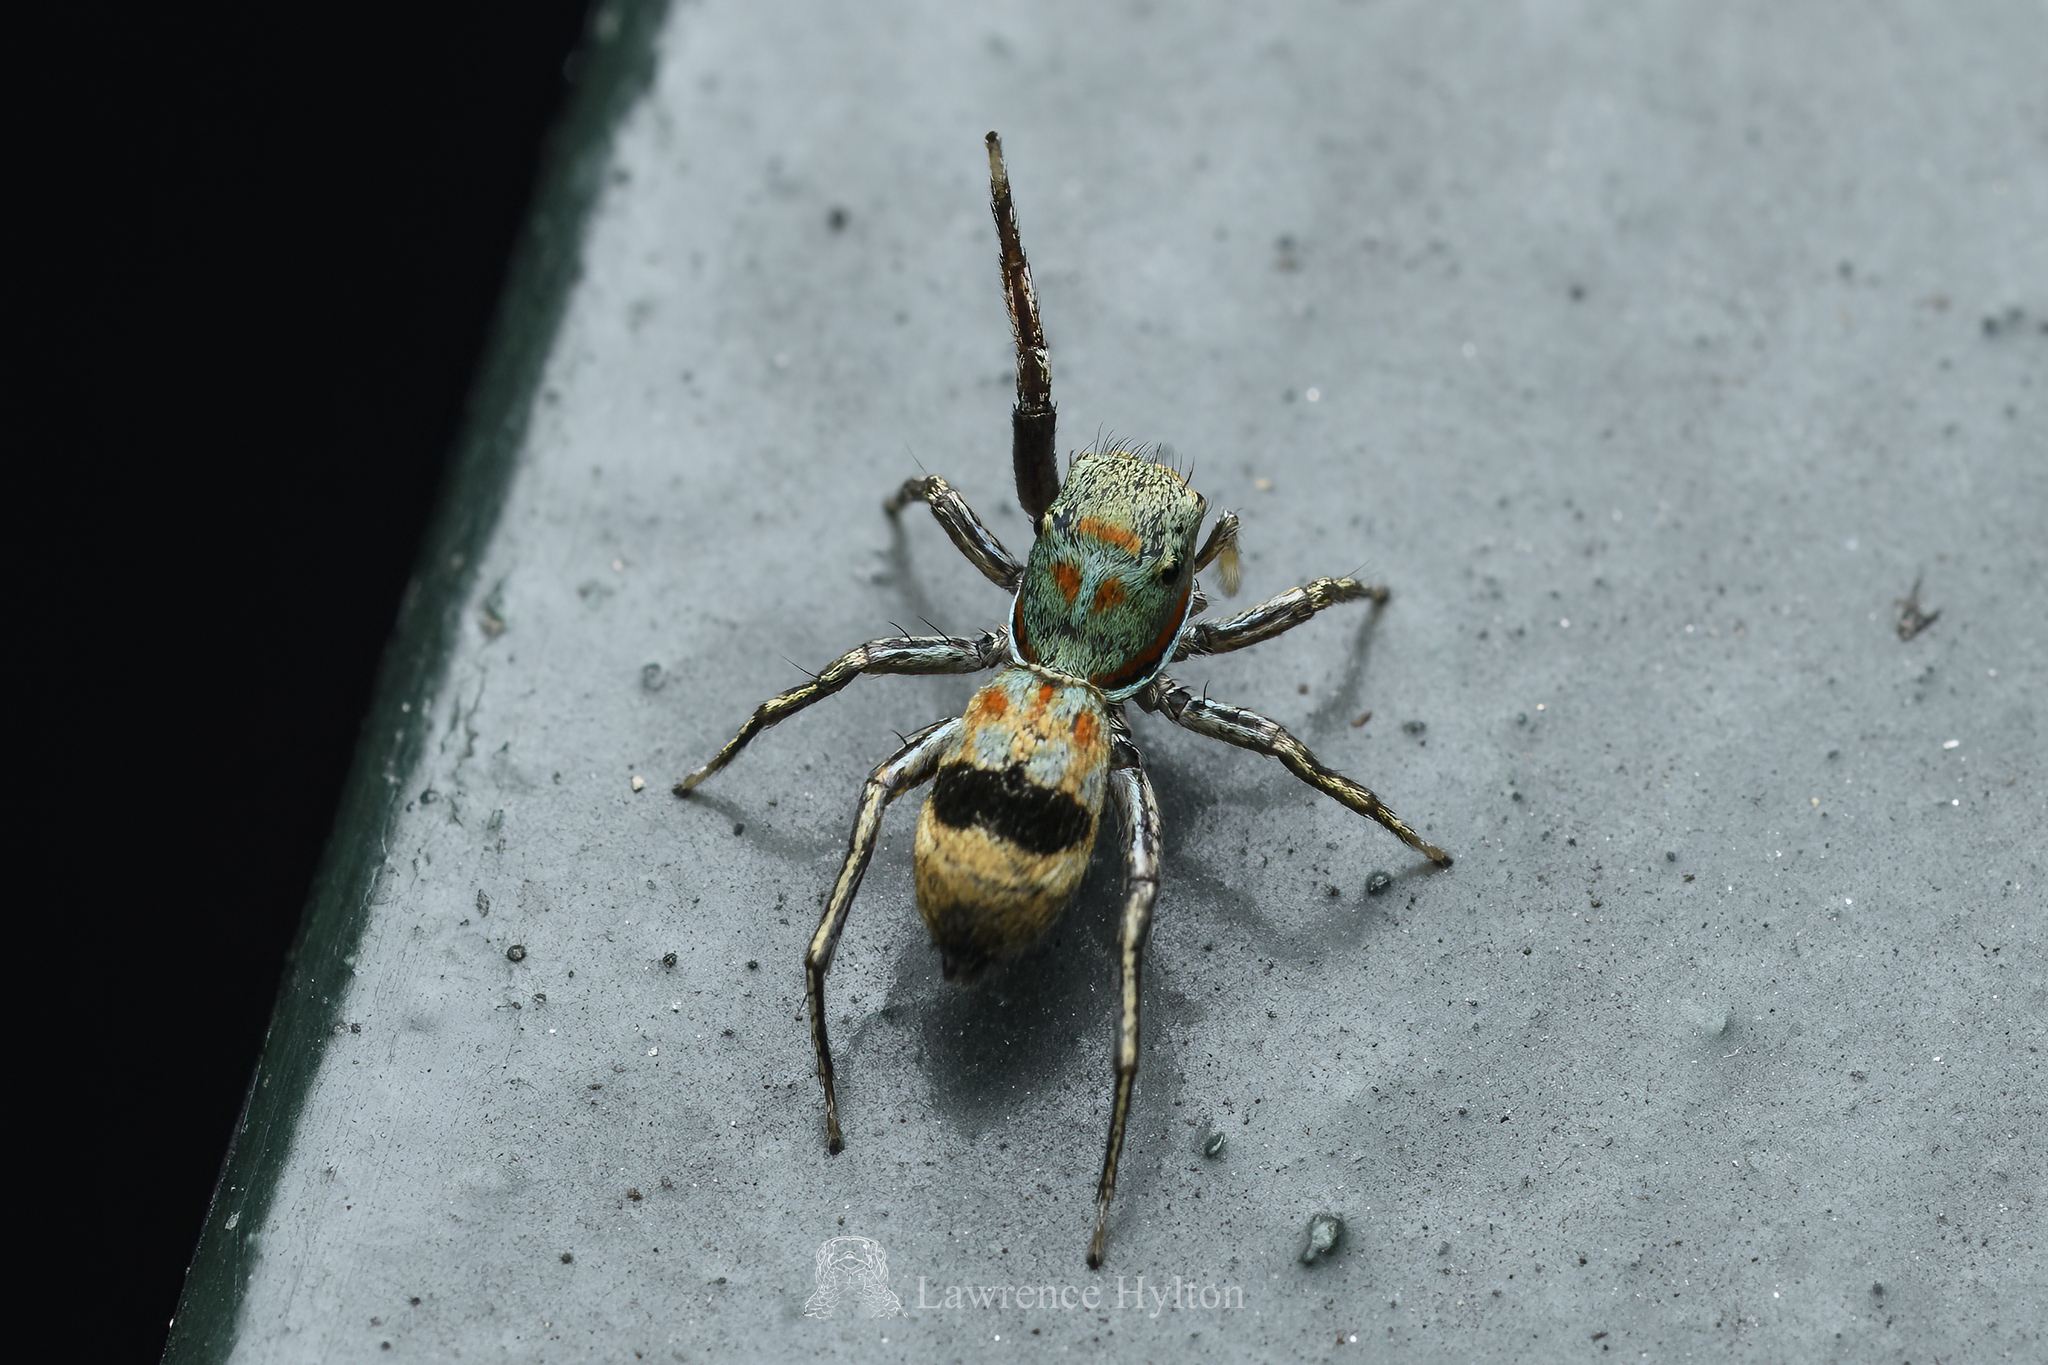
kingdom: Animalia
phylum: Arthropoda
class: Arachnida
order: Araneae
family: Salticidae
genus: Siler
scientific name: Siler collingwoodi
